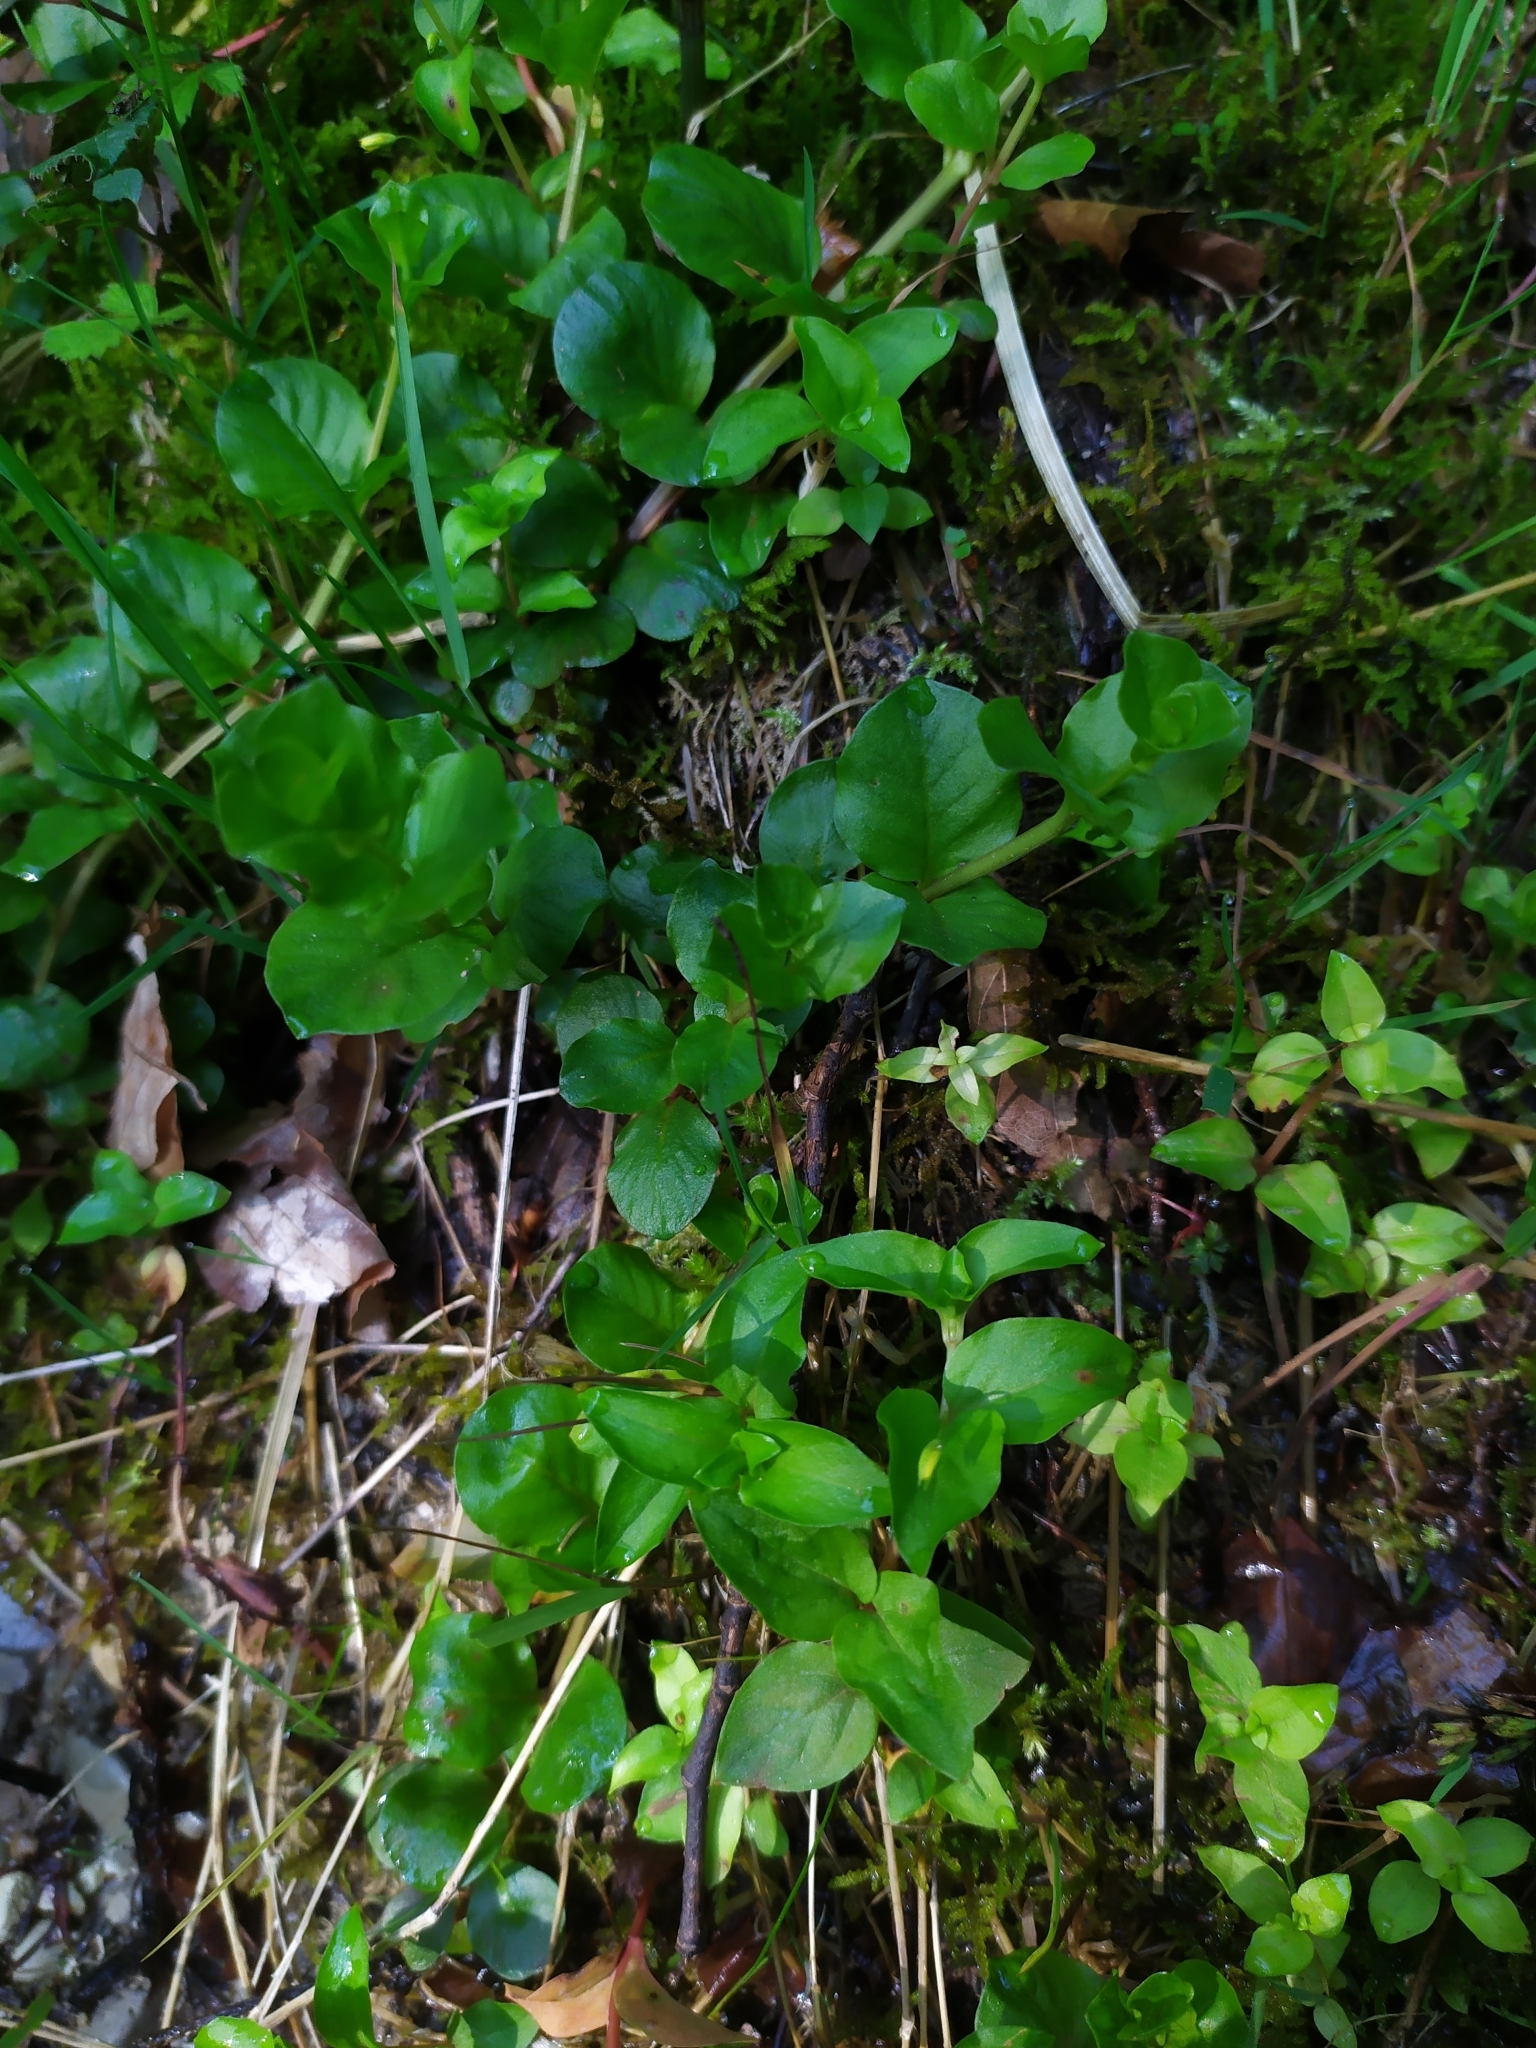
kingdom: Plantae
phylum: Tracheophyta
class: Magnoliopsida
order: Ericales
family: Primulaceae
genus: Lysimachia
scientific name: Lysimachia nummularia
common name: Moneywort
